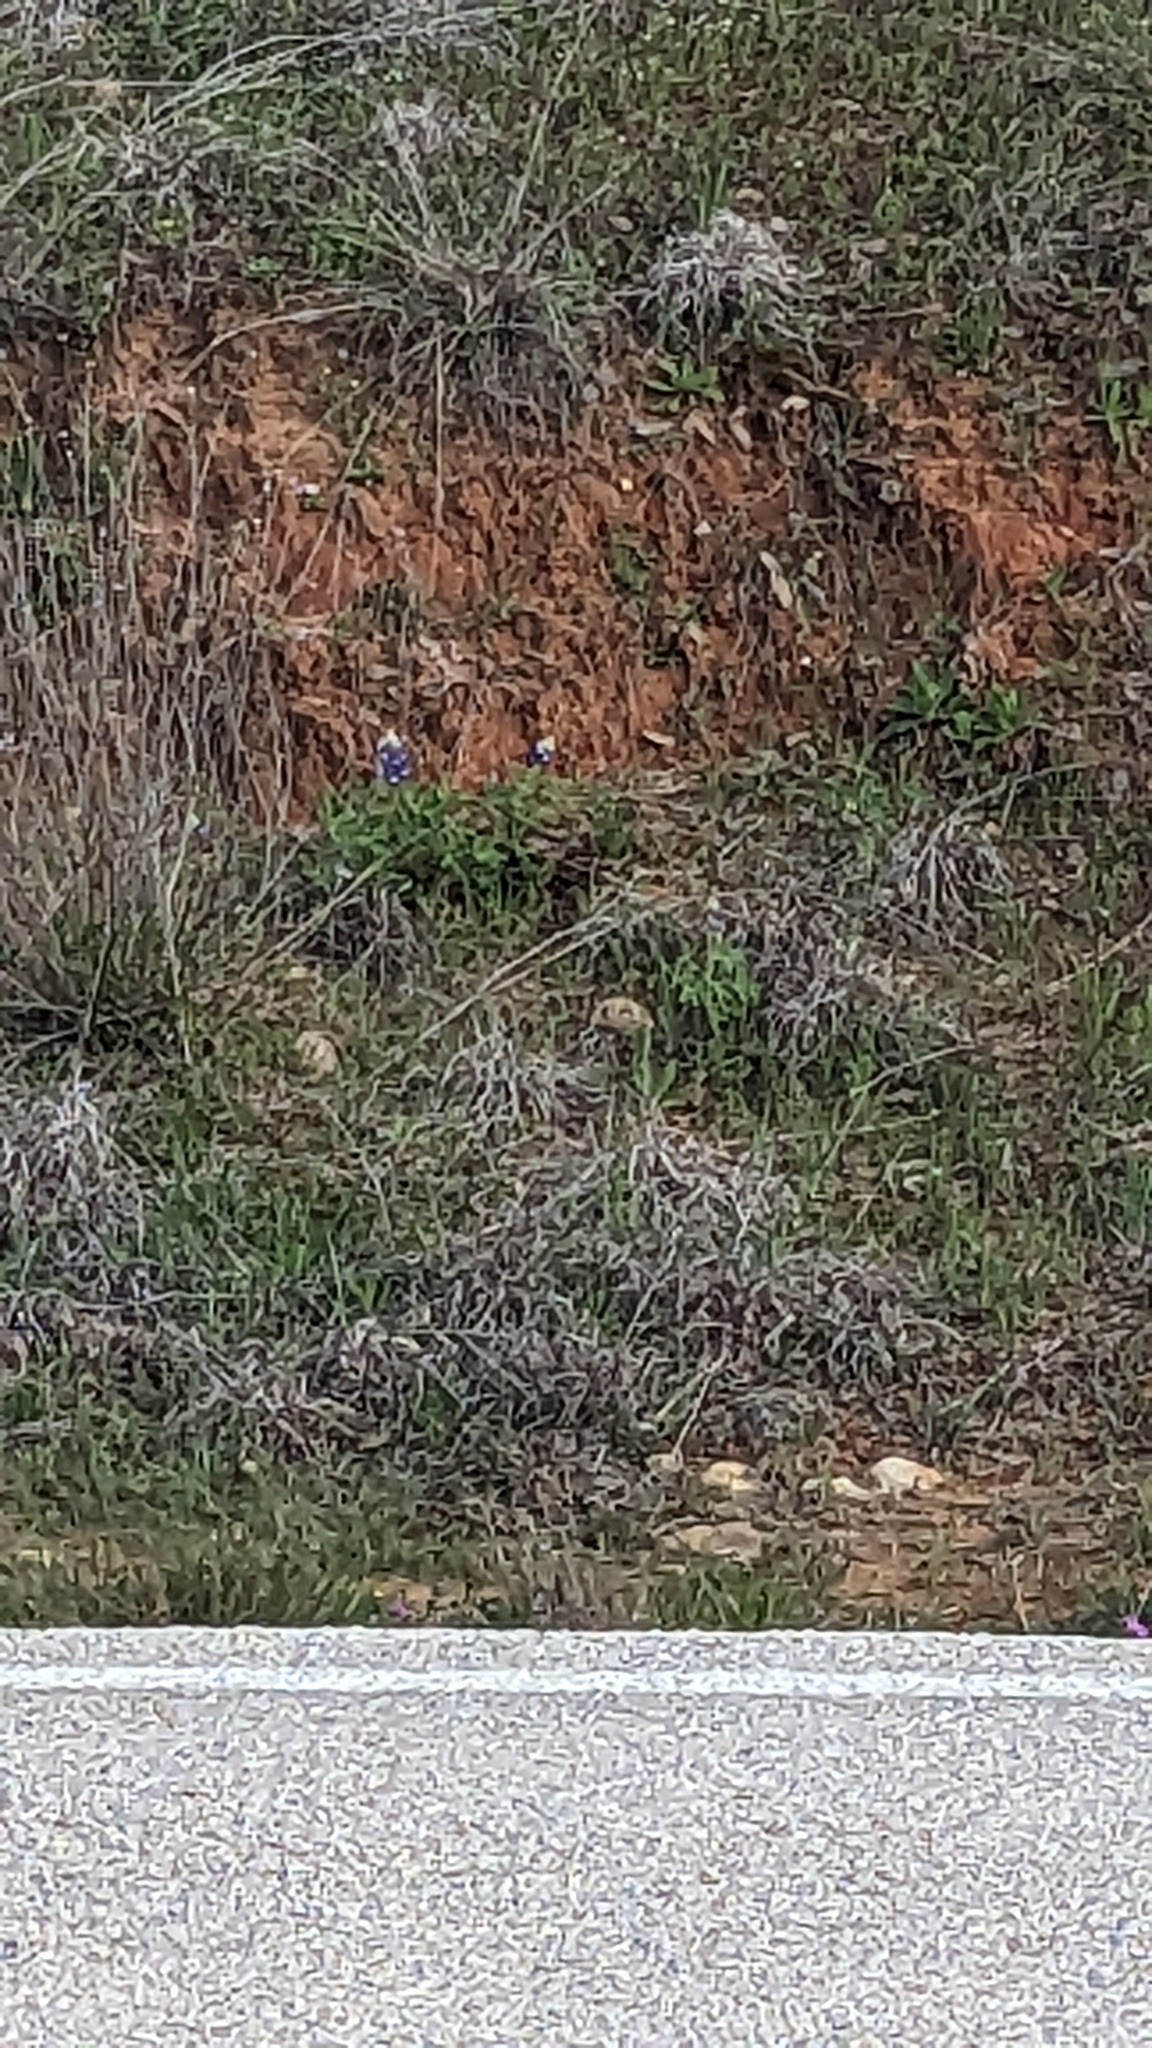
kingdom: Plantae
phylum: Tracheophyta
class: Magnoliopsida
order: Fabales
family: Fabaceae
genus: Lupinus
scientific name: Lupinus texensis
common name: Texas bluebonnet
